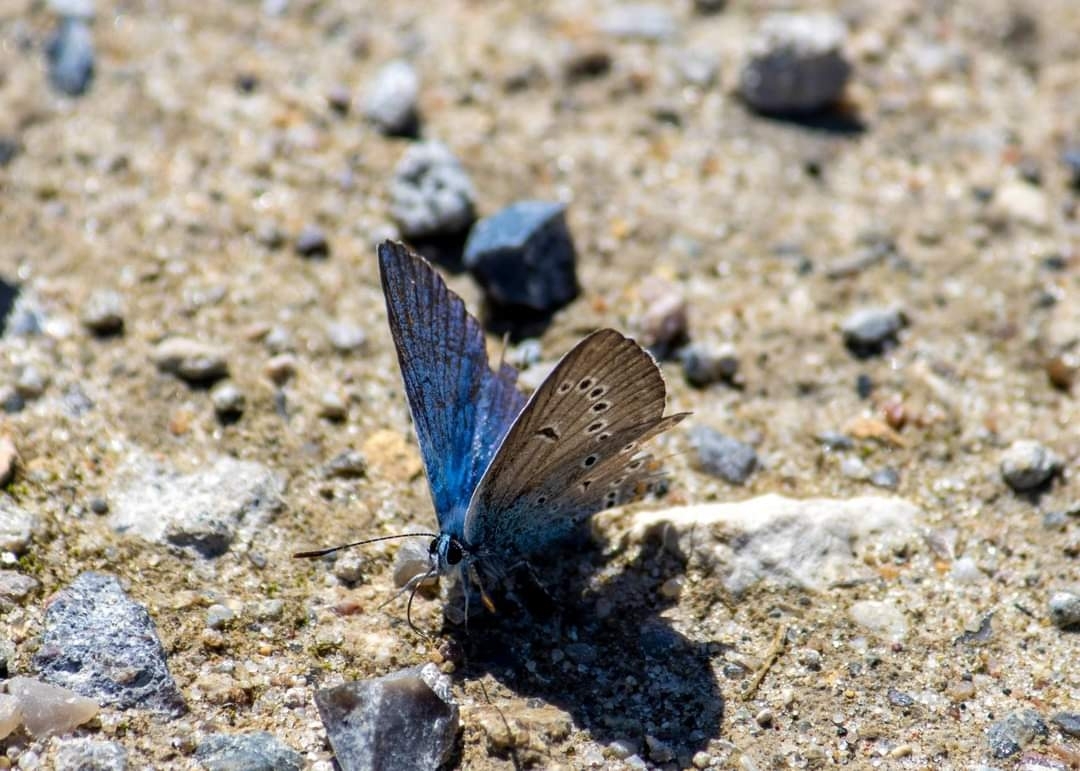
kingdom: Animalia
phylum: Arthropoda
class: Insecta
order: Lepidoptera
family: Lycaenidae
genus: Plebejus
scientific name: Plebejus amanda
